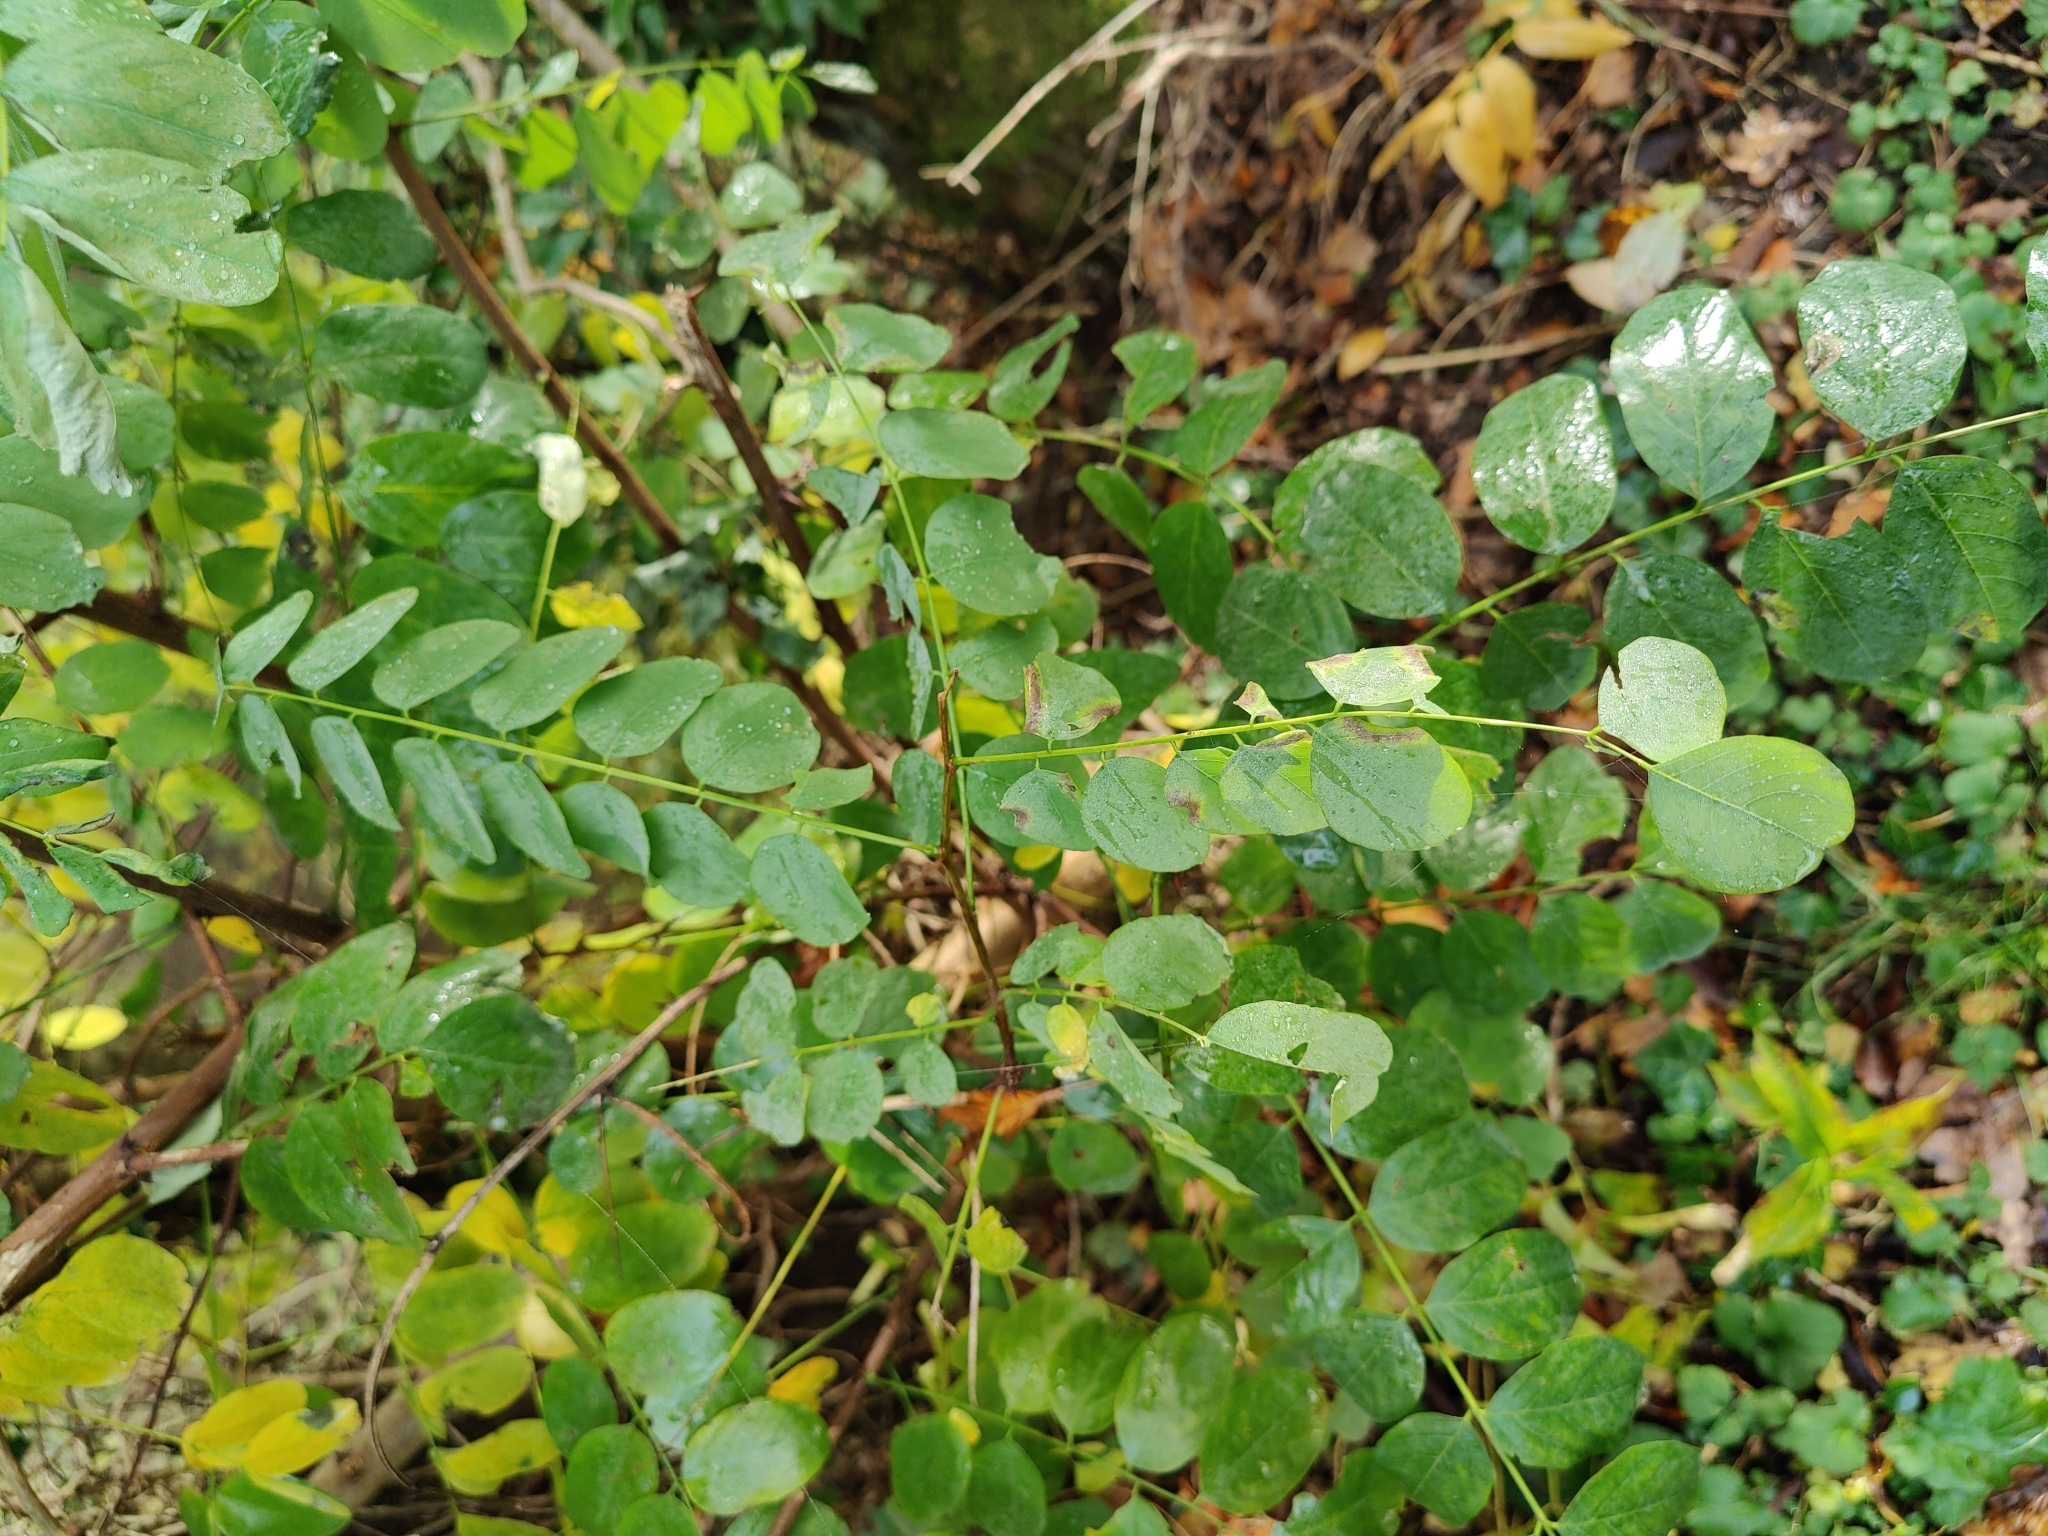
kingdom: Plantae
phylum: Tracheophyta
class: Magnoliopsida
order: Fabales
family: Fabaceae
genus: Robinia
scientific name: Robinia pseudoacacia
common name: Black locust
